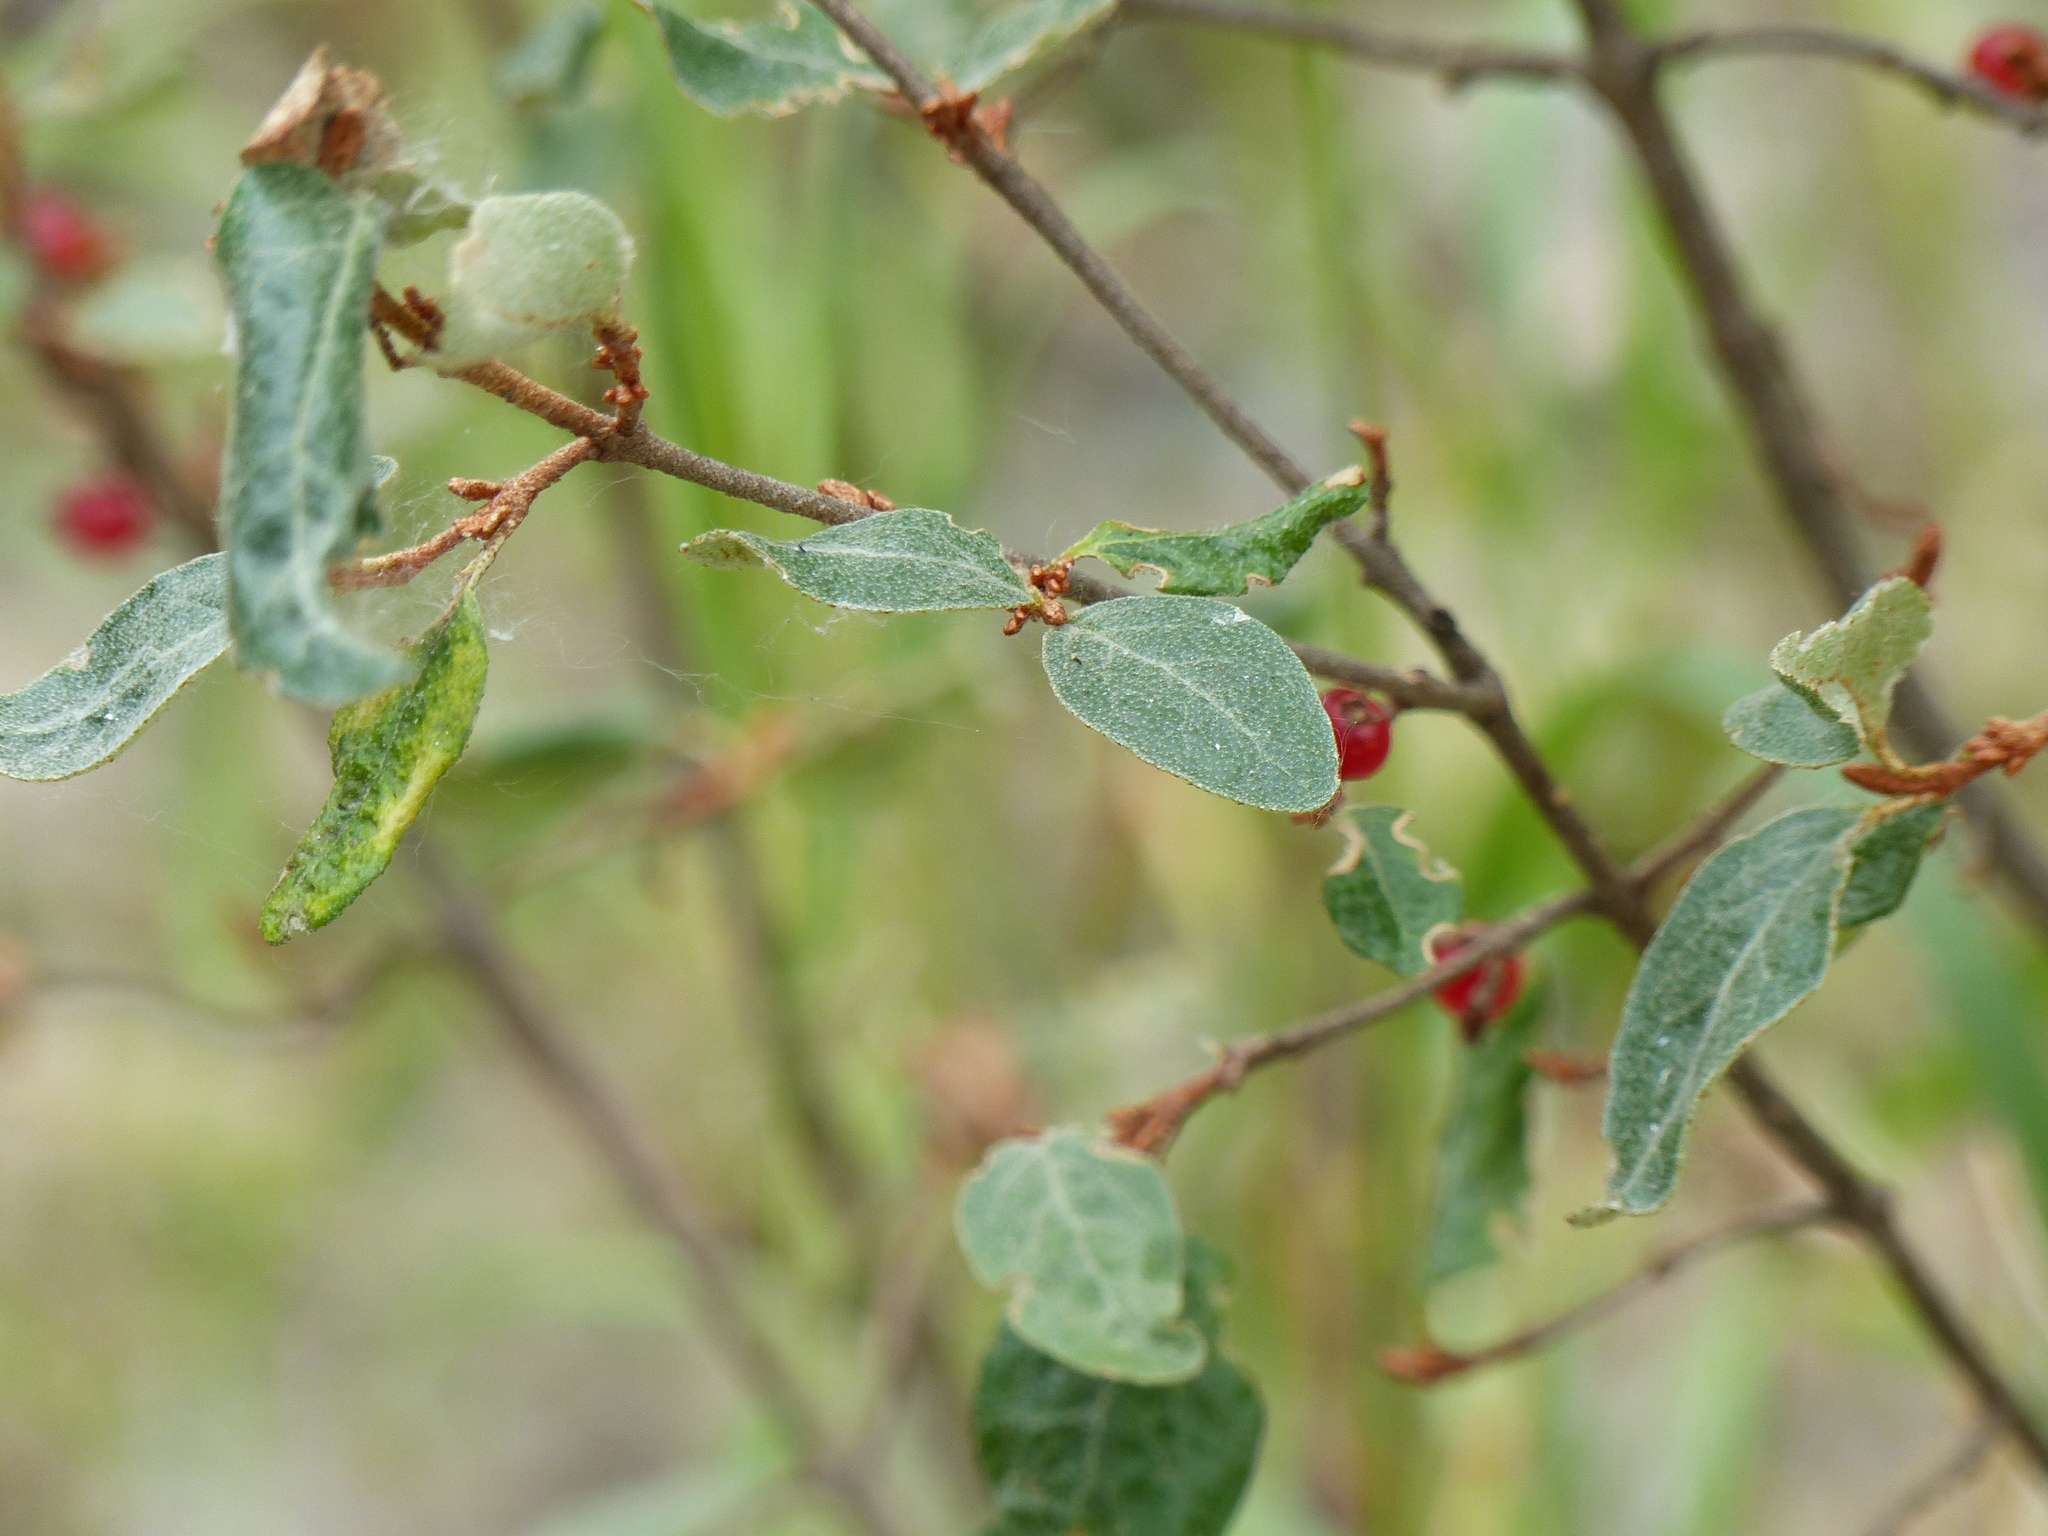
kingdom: Plantae
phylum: Tracheophyta
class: Magnoliopsida
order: Rosales
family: Elaeagnaceae
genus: Shepherdia
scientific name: Shepherdia canadensis
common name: Soapberry
